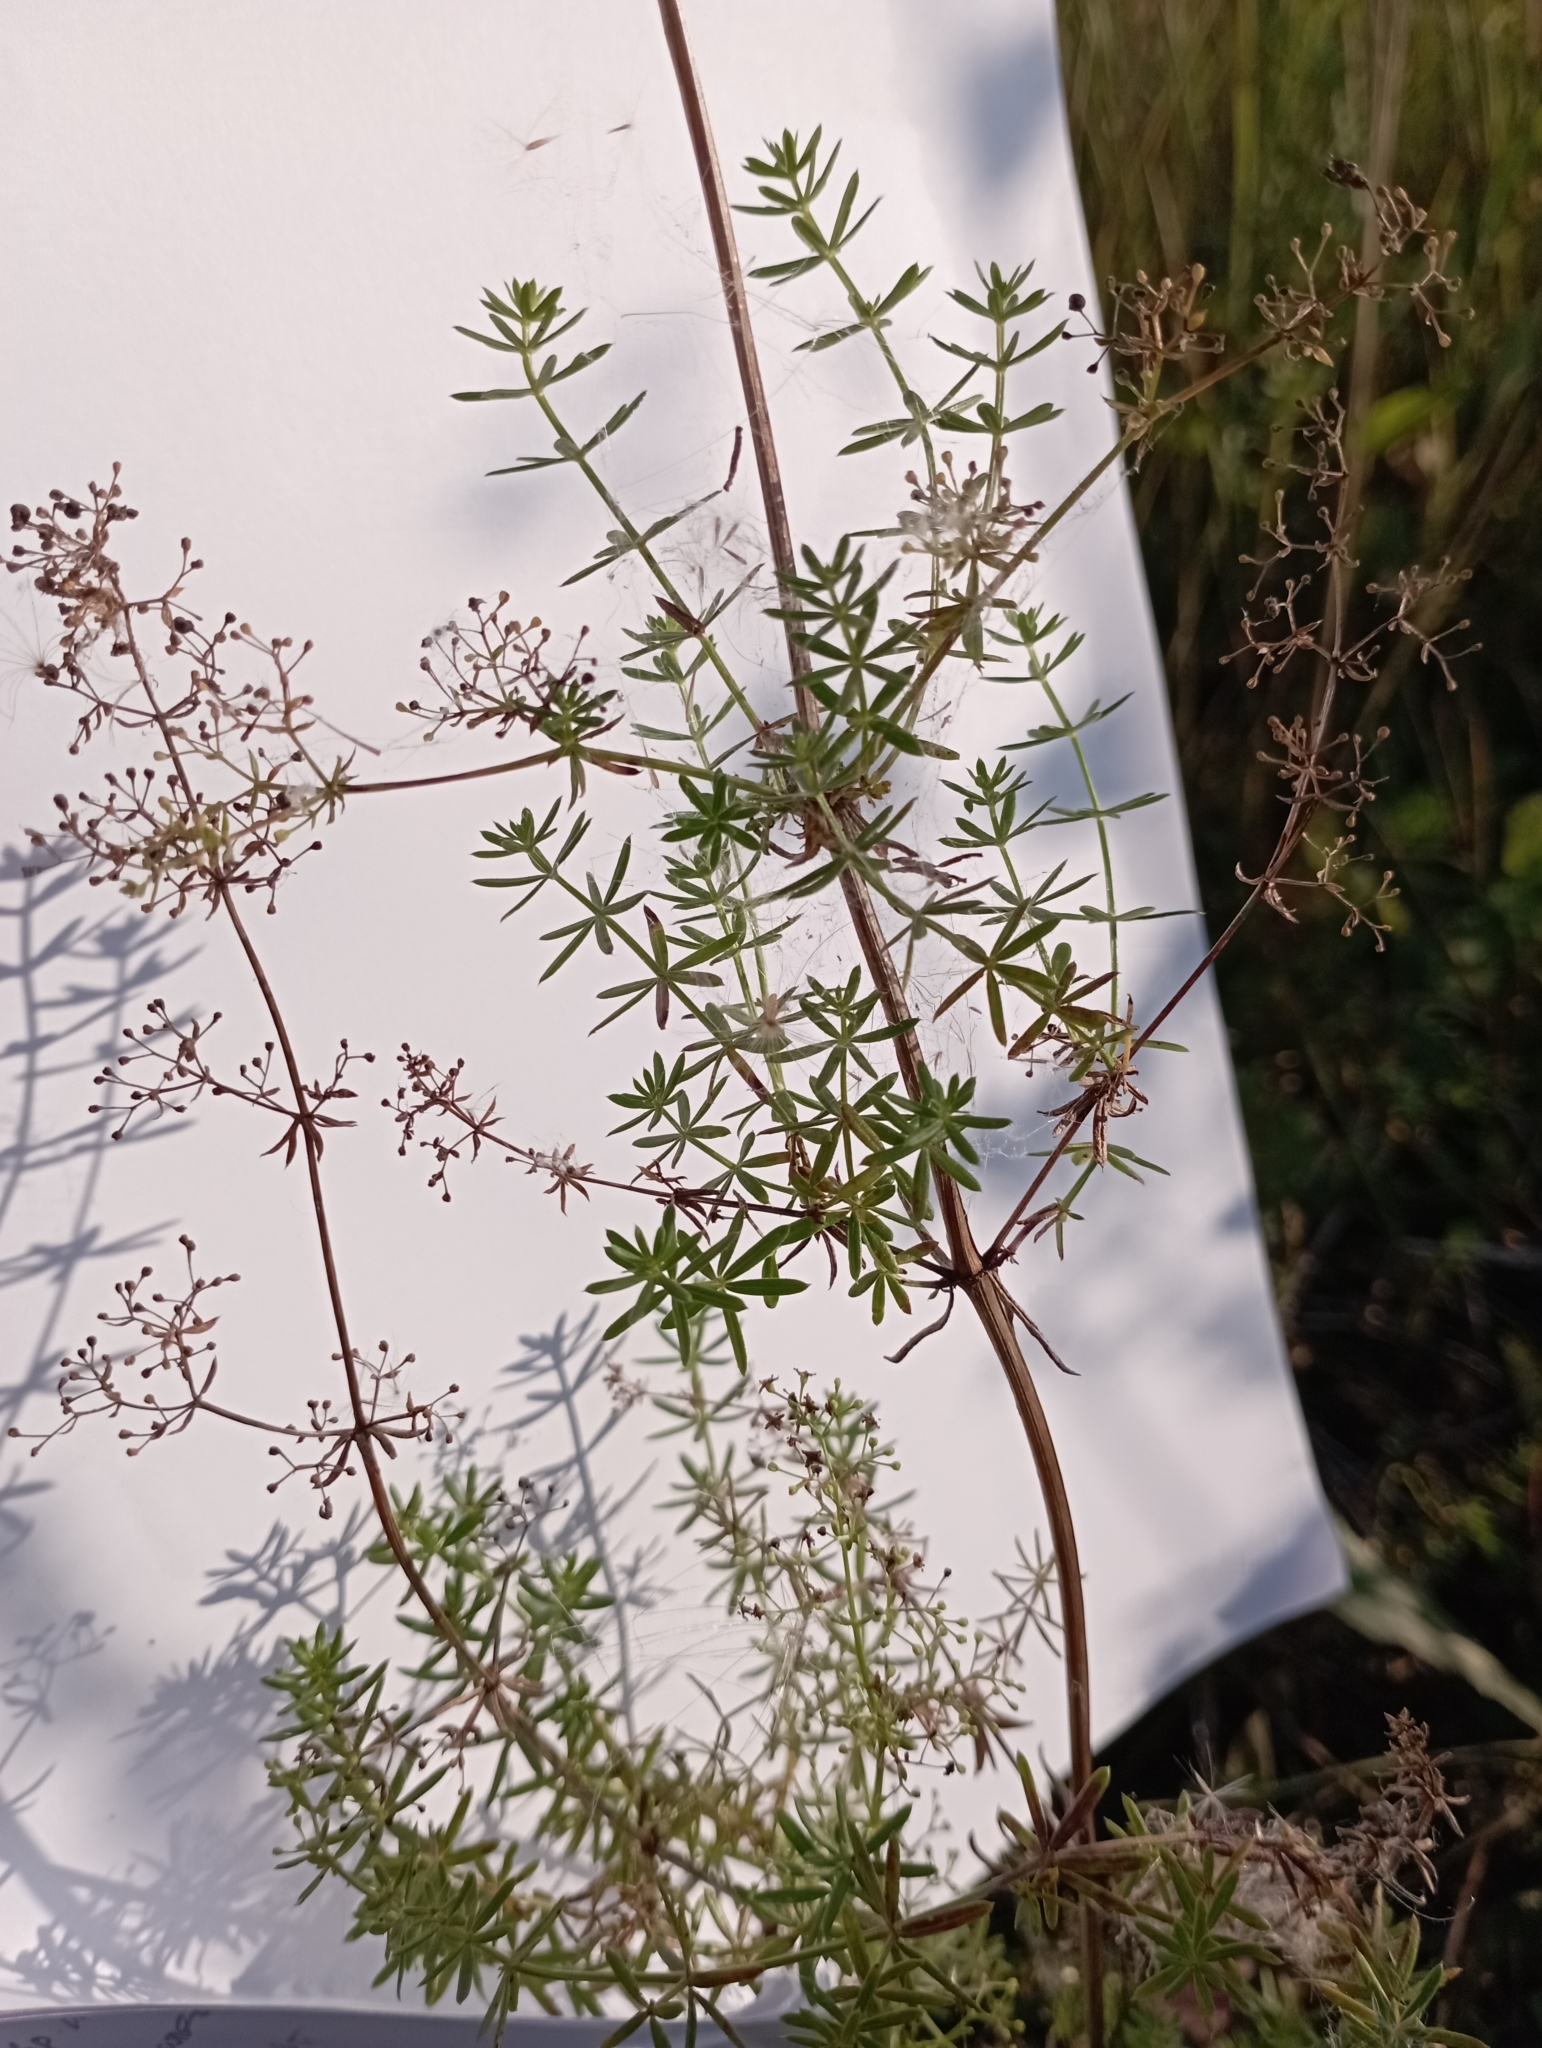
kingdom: Plantae
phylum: Tracheophyta
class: Magnoliopsida
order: Gentianales
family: Rubiaceae
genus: Galium
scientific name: Galium mollugo
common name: Hedge bedstraw
